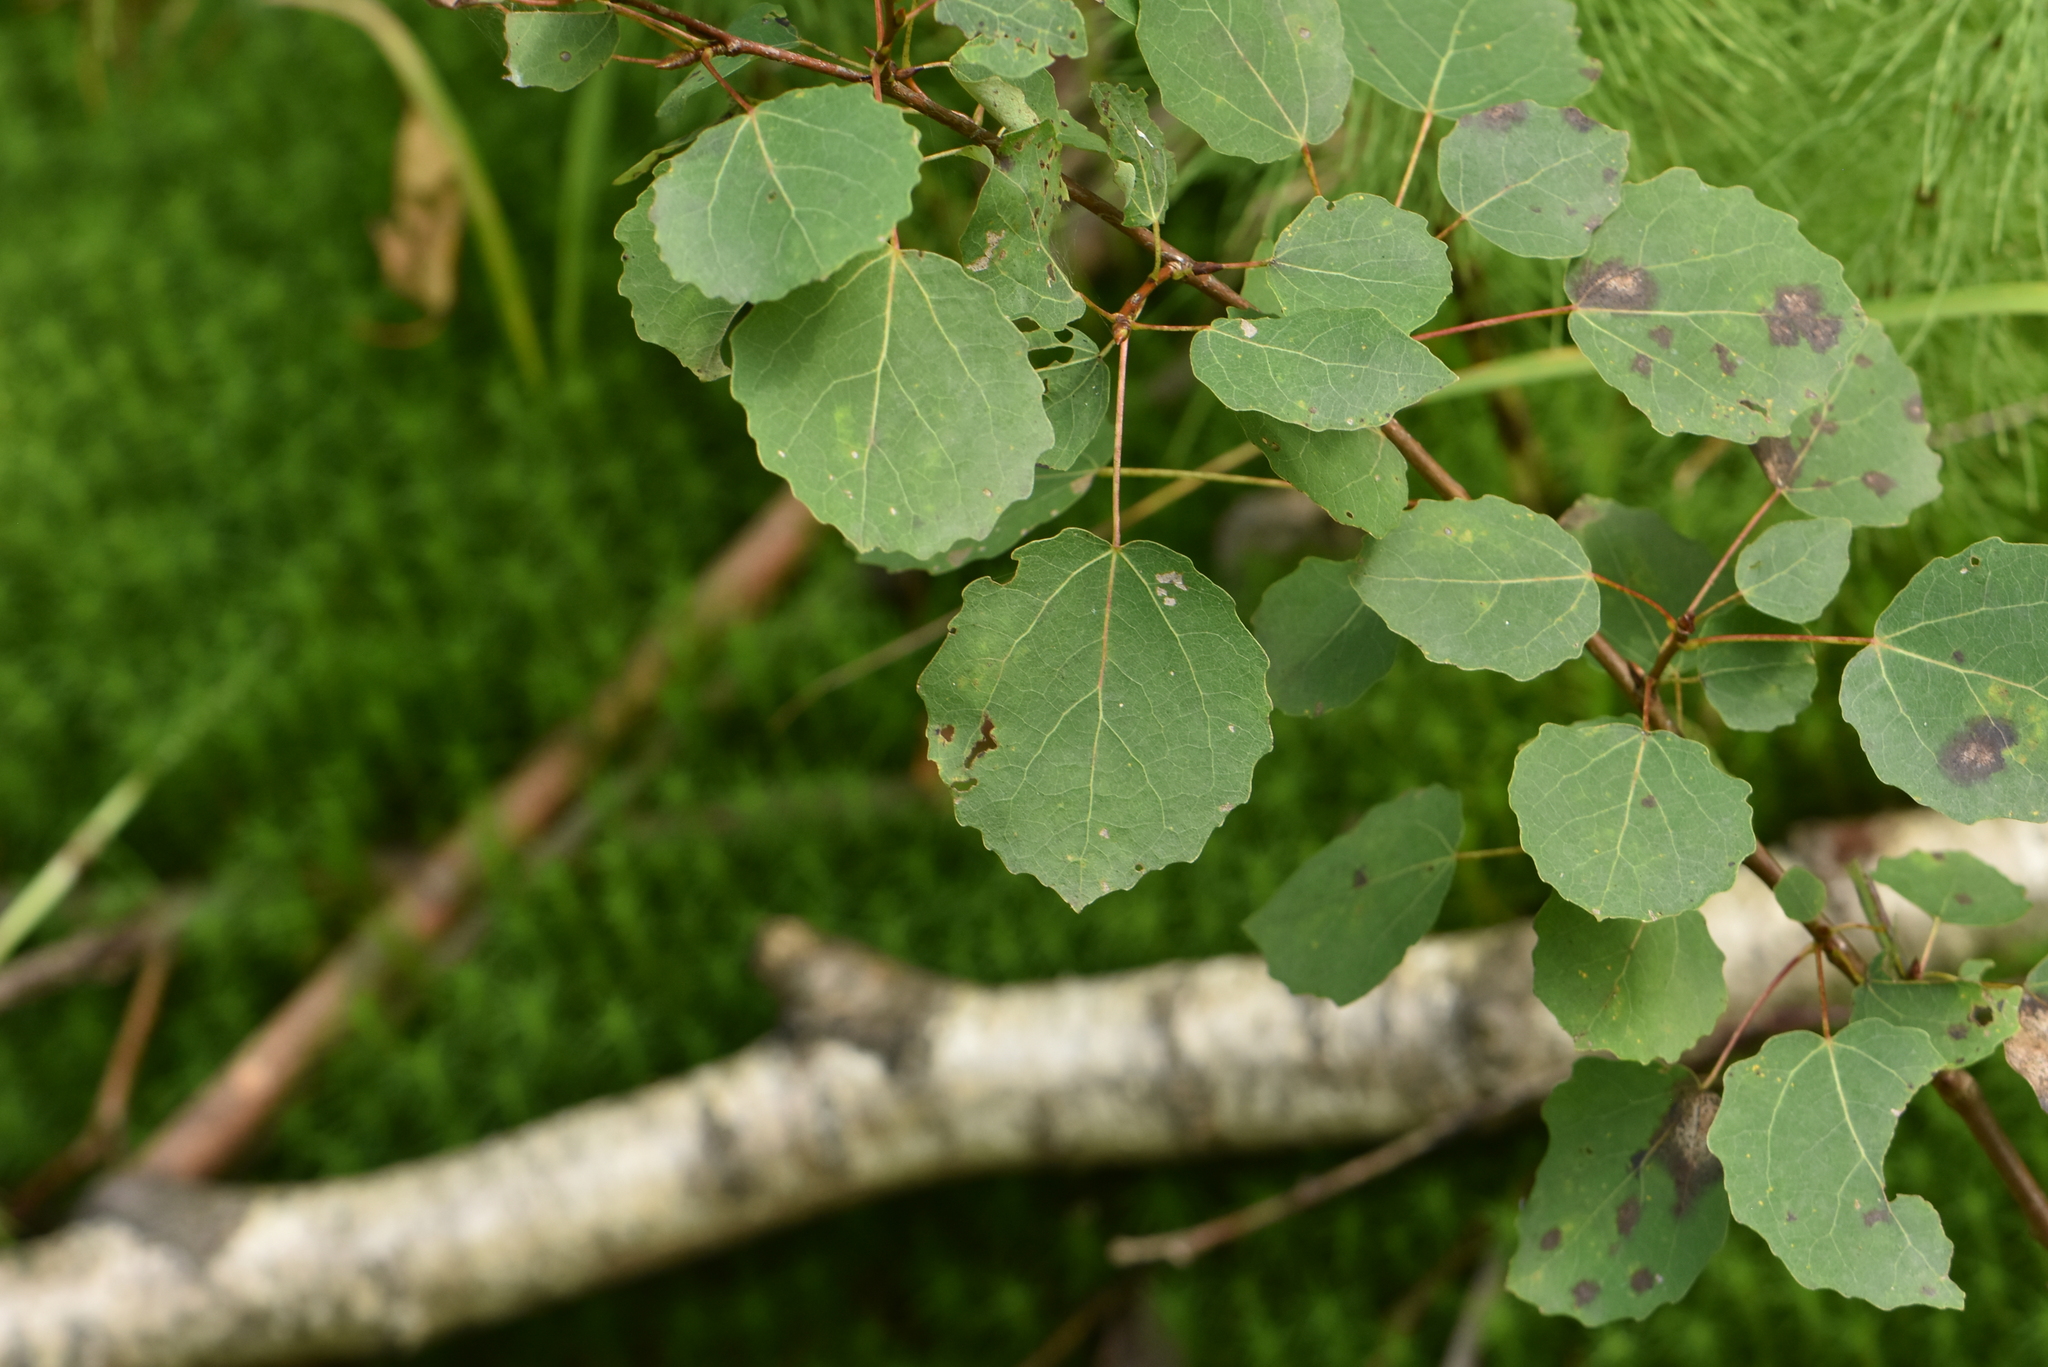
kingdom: Plantae
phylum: Tracheophyta
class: Magnoliopsida
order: Malpighiales
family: Salicaceae
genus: Populus
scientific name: Populus tremula
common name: European aspen
